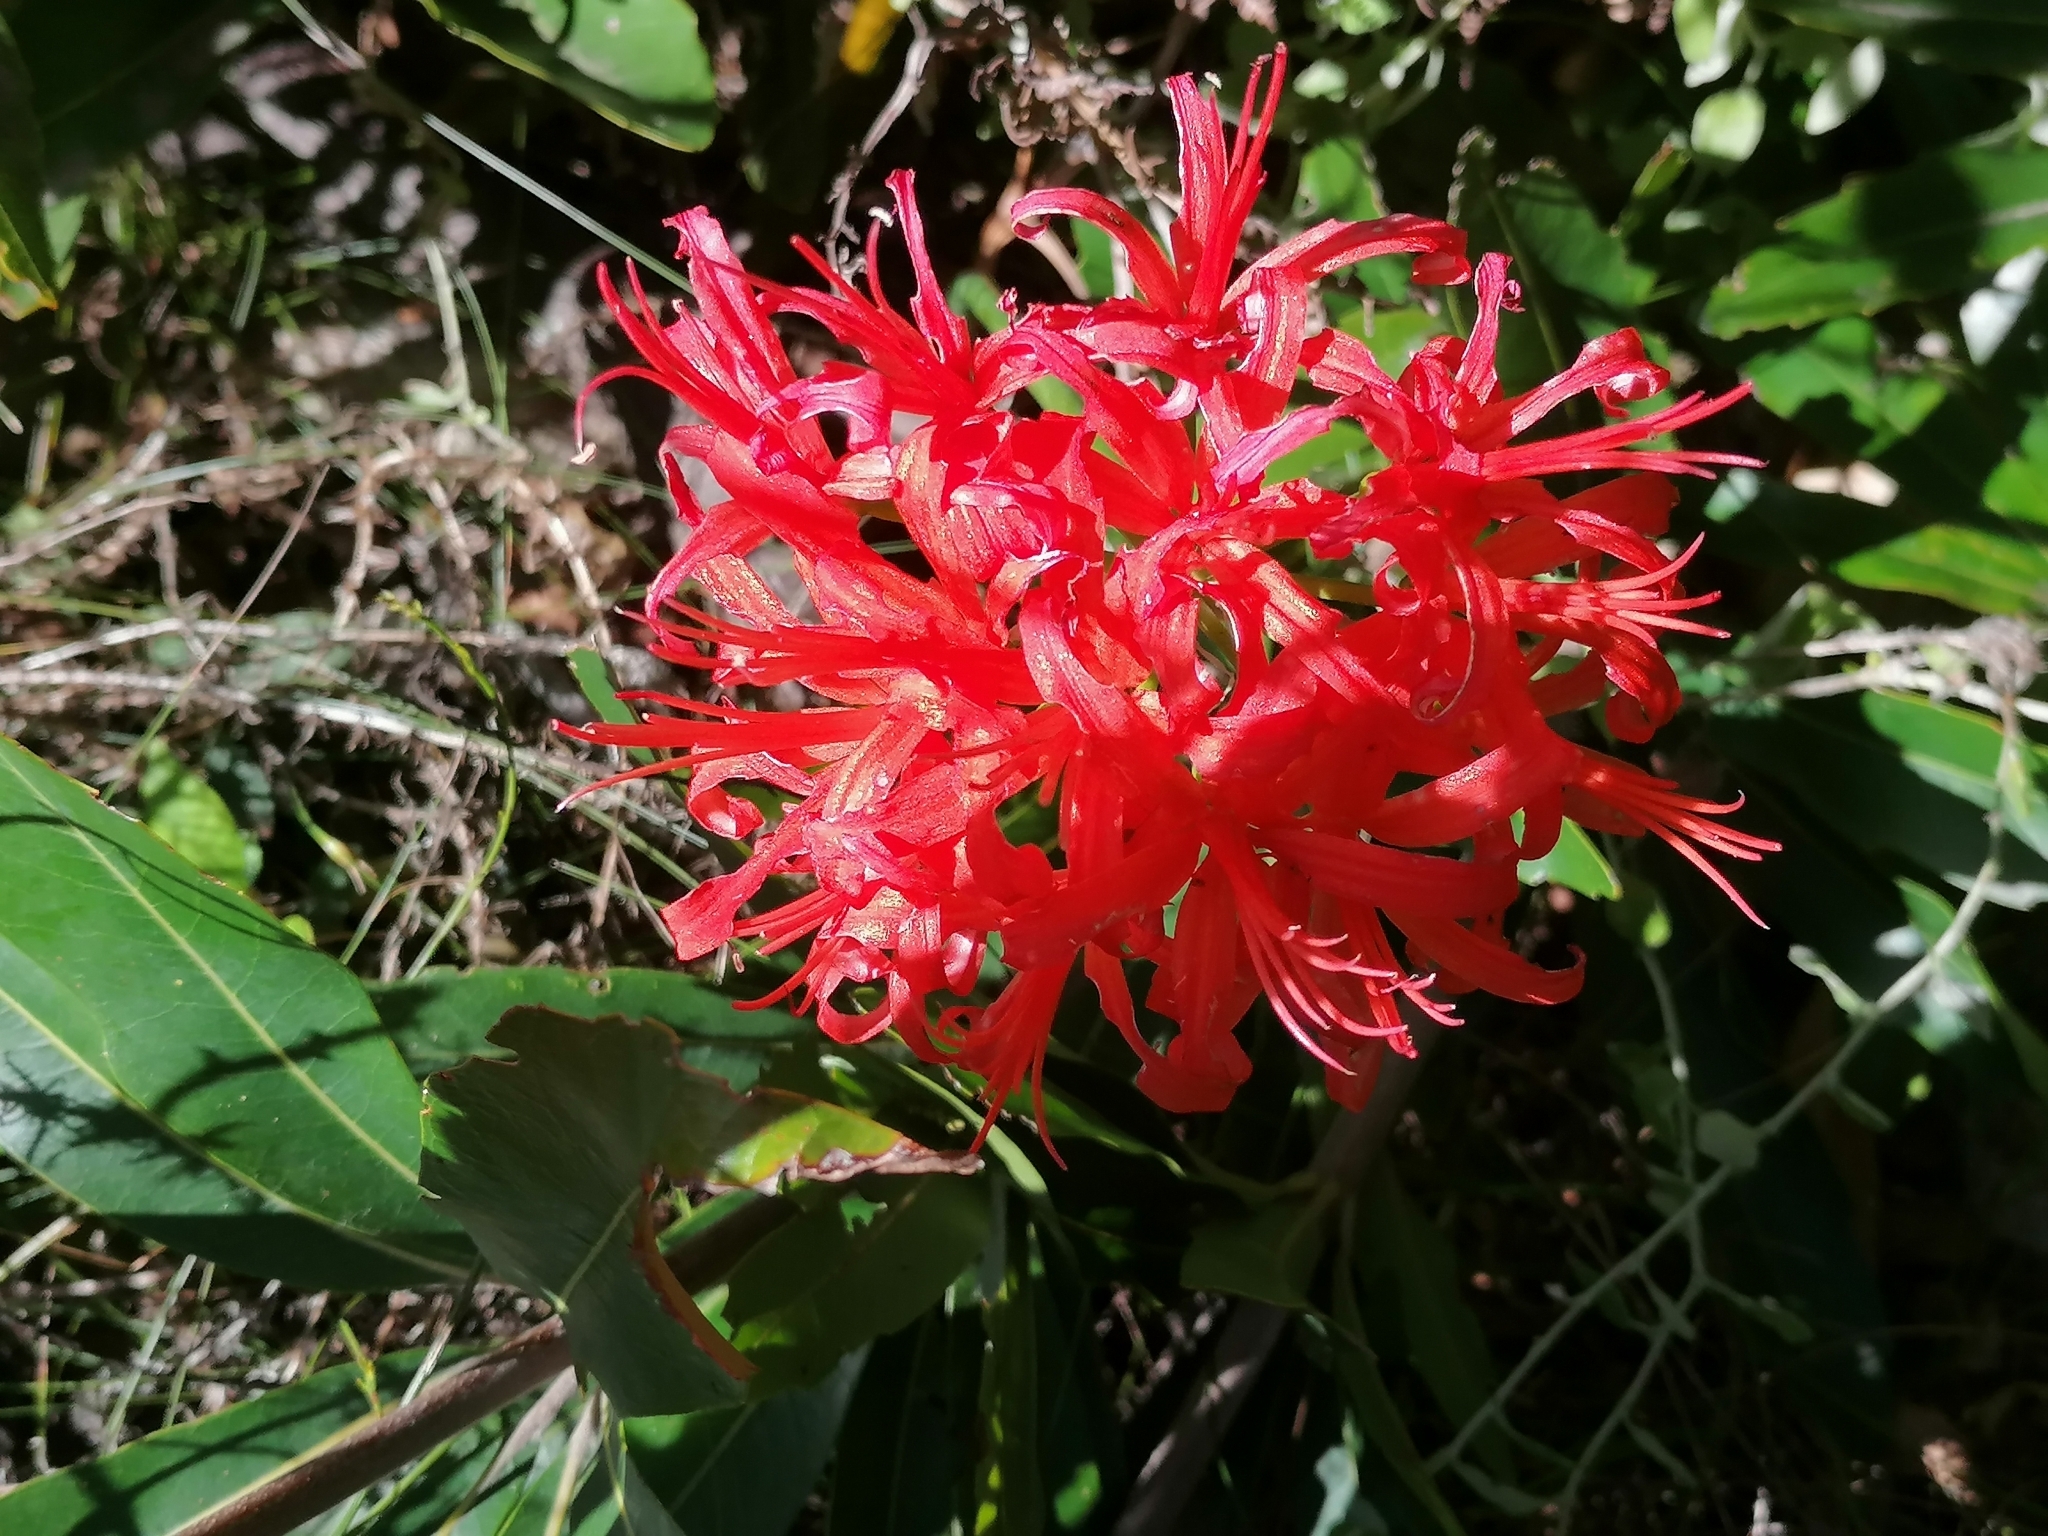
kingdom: Plantae
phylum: Tracheophyta
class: Liliopsida
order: Asparagales
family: Amaryllidaceae
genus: Nerine
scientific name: Nerine sarniensis
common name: Guernsey-lily
